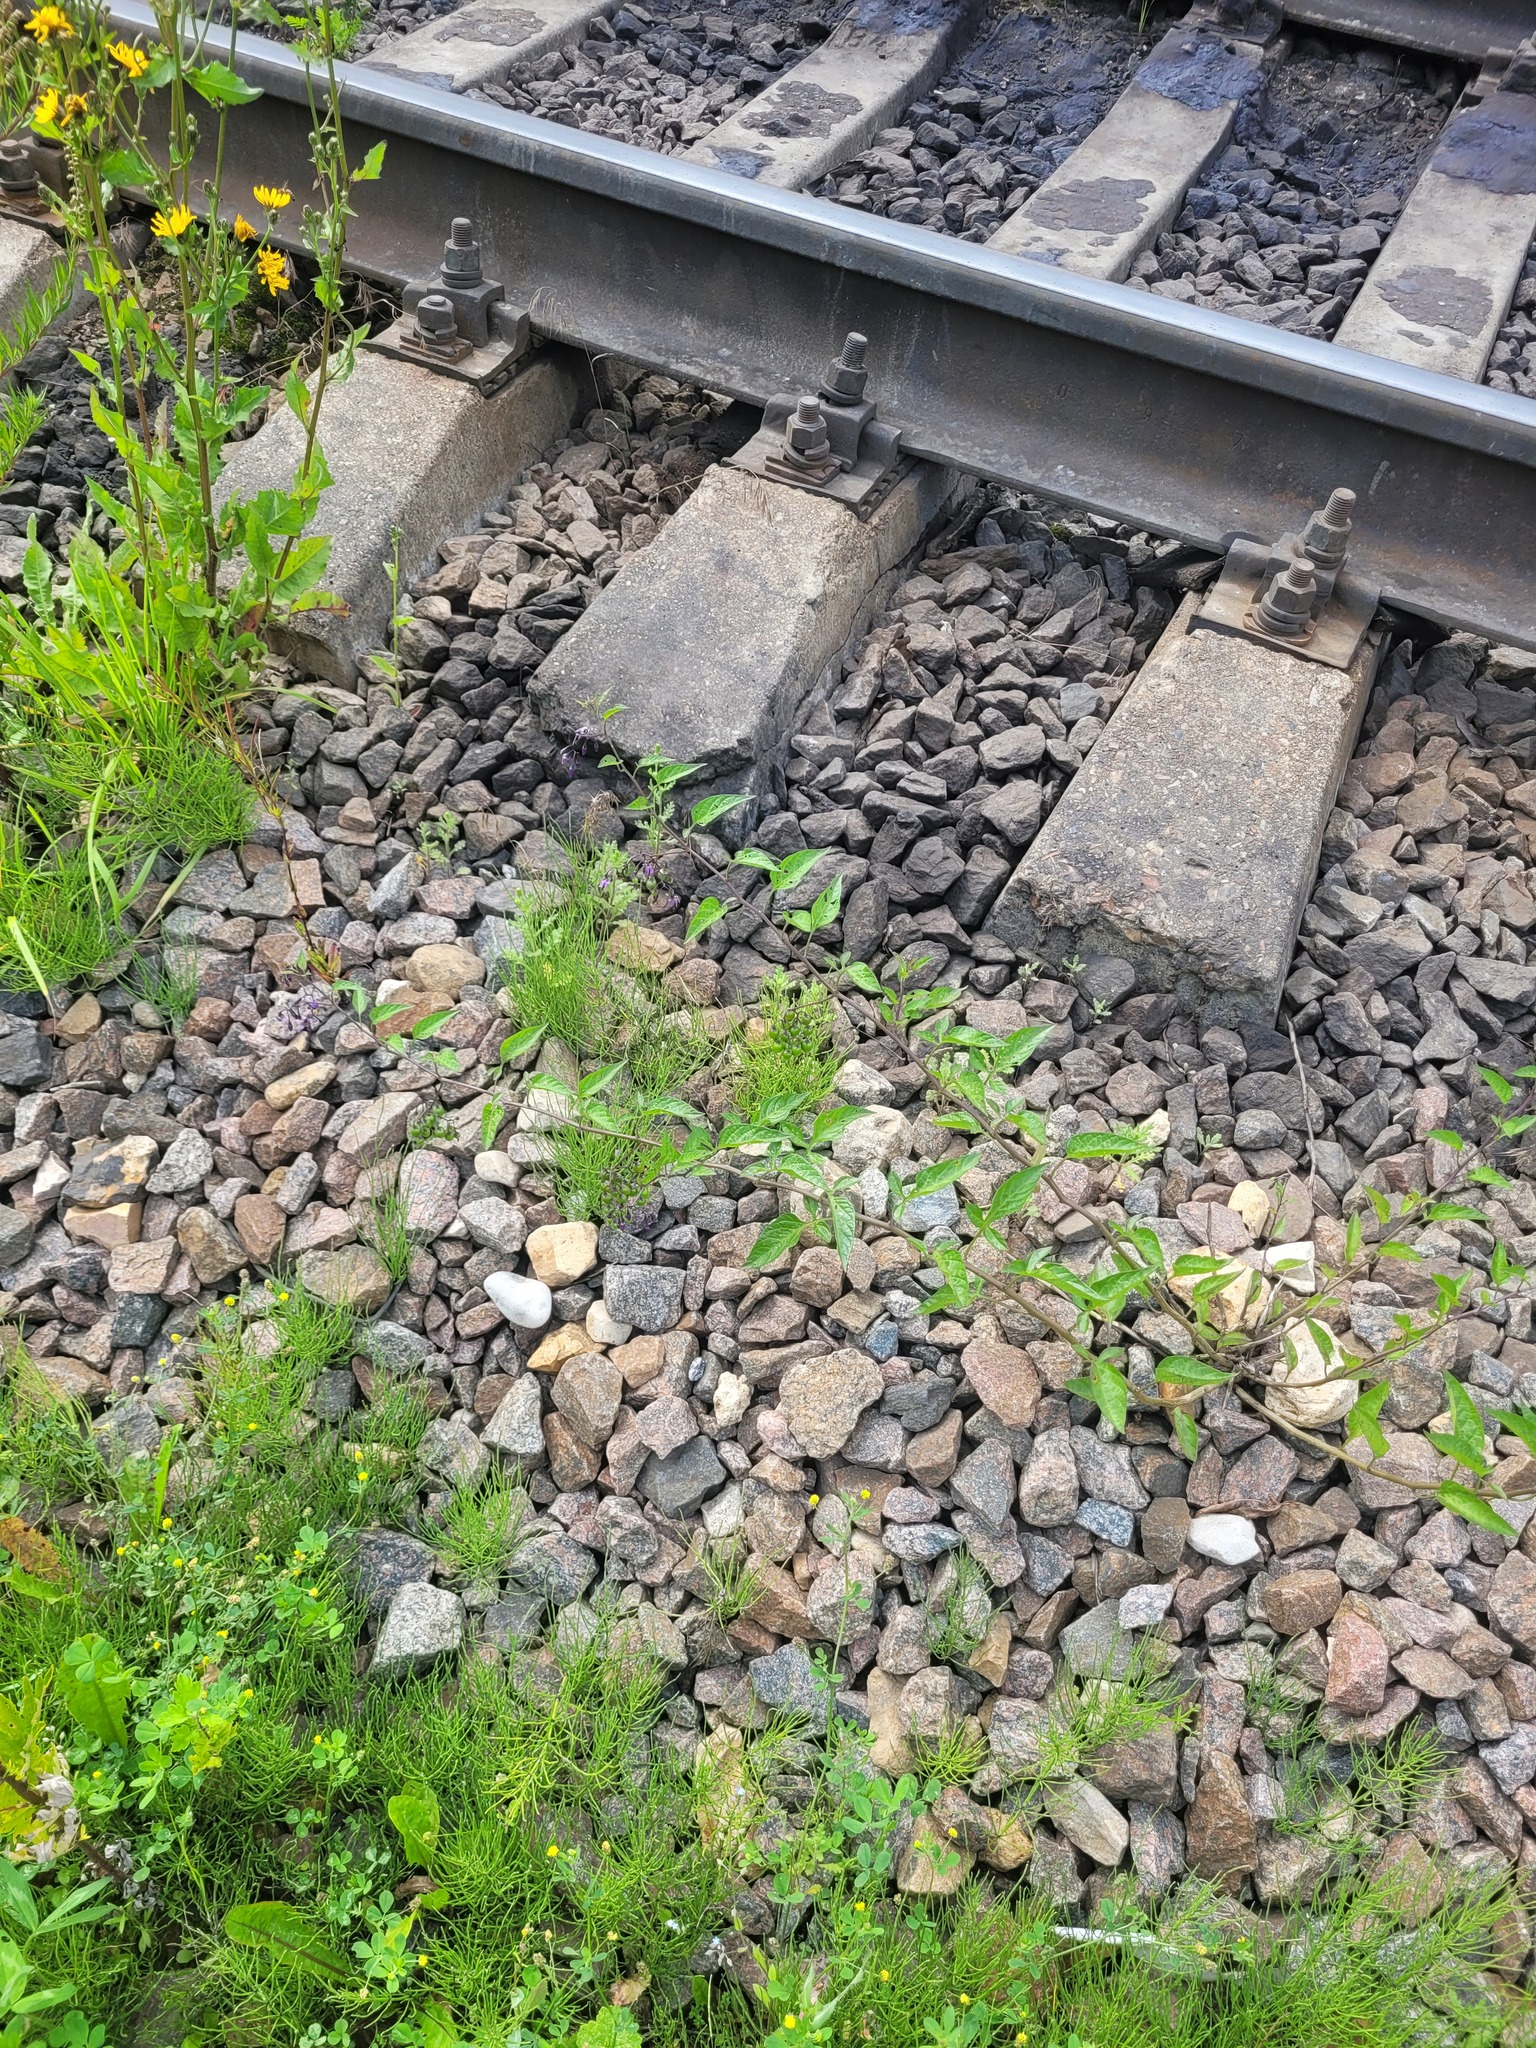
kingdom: Plantae
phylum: Tracheophyta
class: Magnoliopsida
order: Solanales
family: Solanaceae
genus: Solanum
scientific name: Solanum dulcamara
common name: Climbing nightshade
